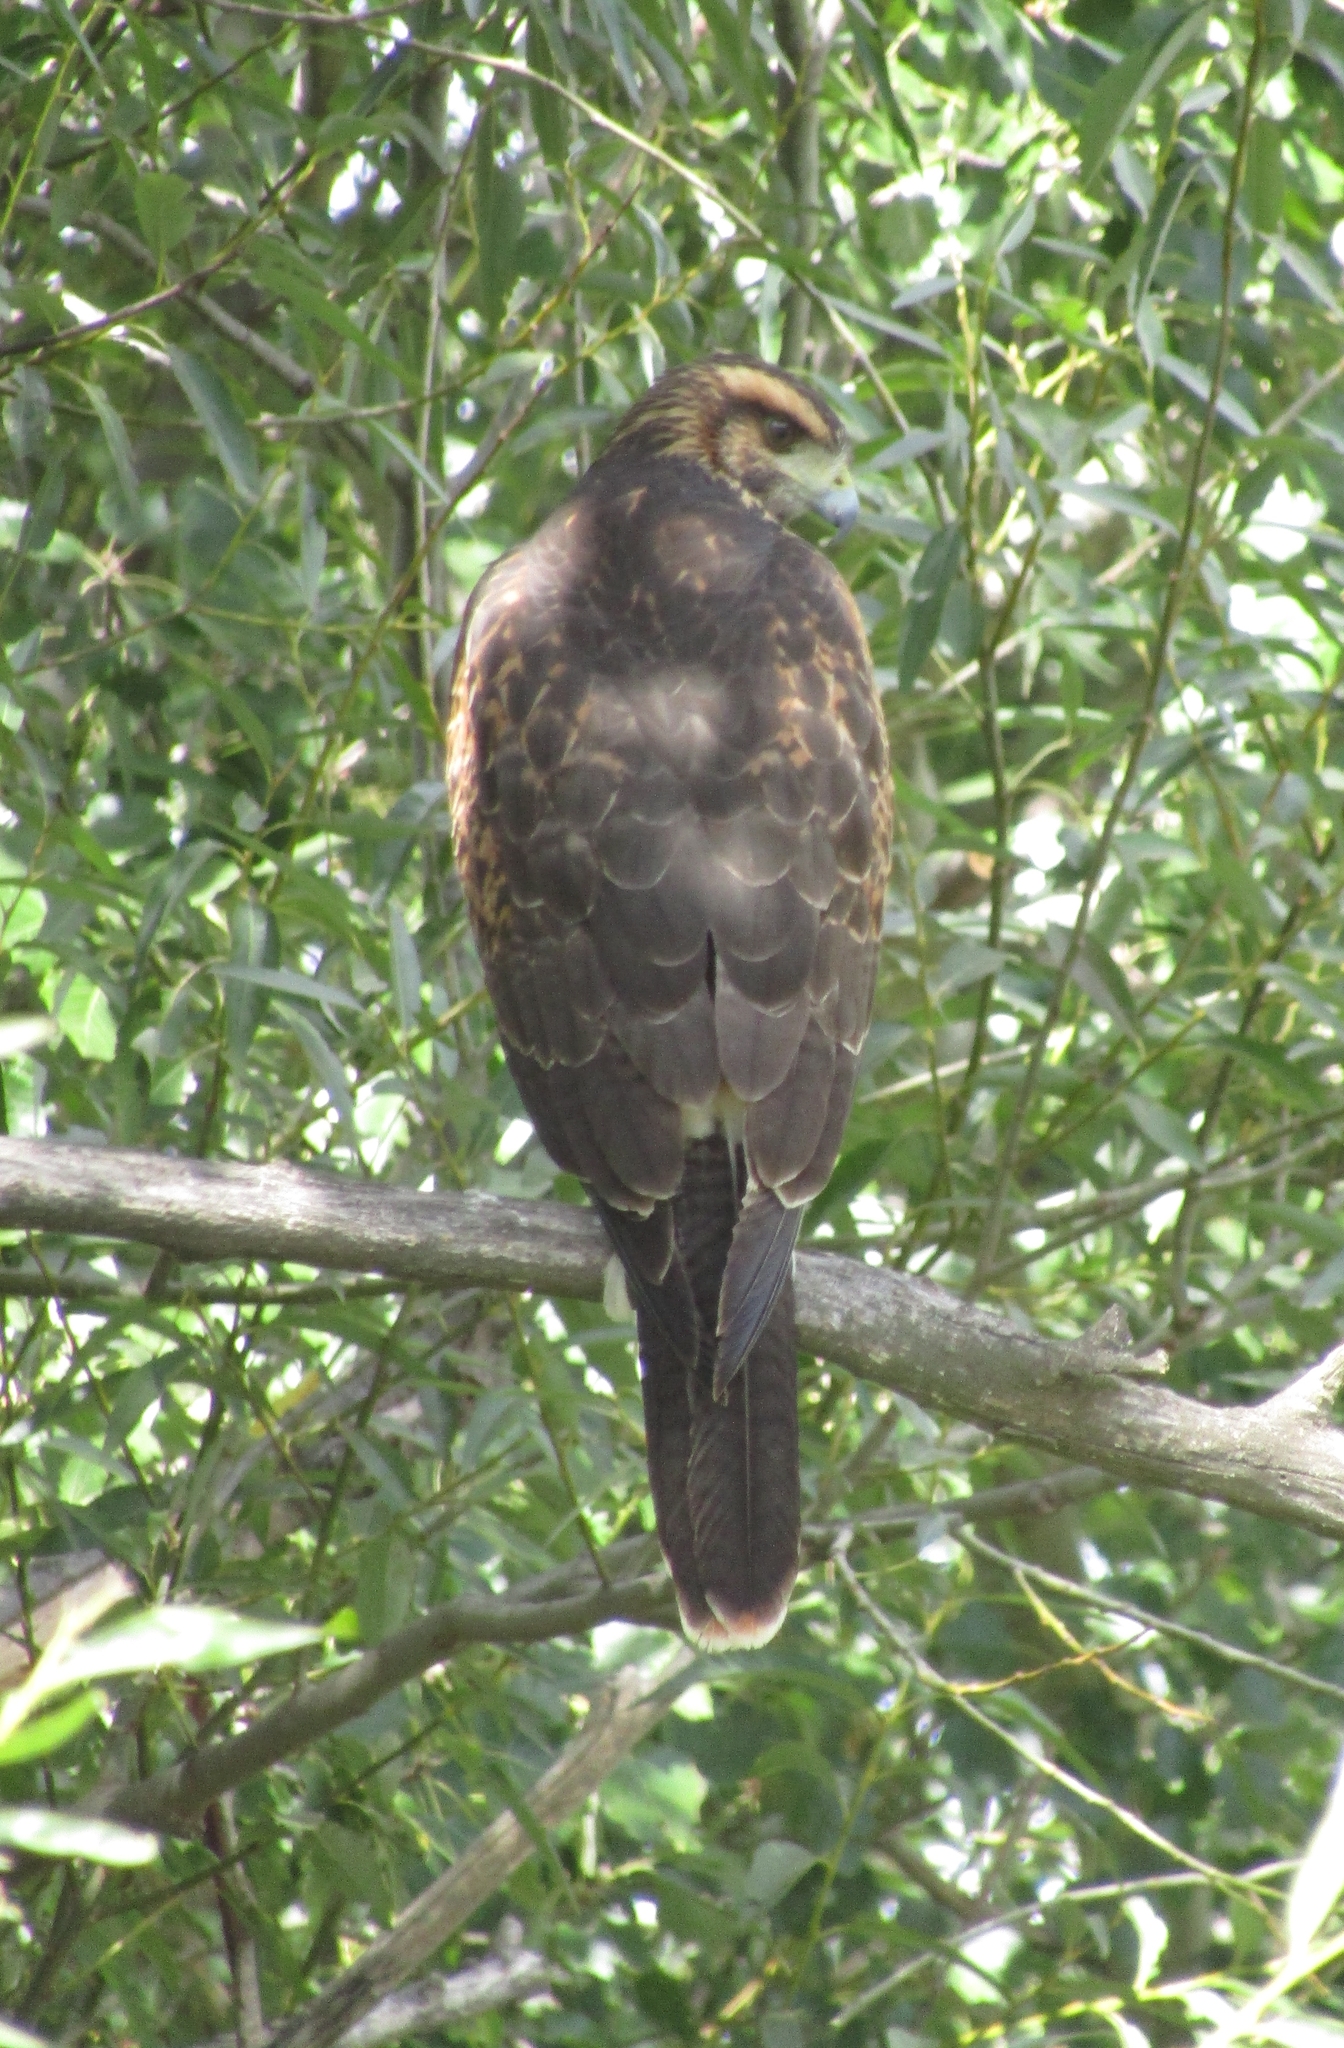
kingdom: Animalia
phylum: Chordata
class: Aves
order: Accipitriformes
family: Accipitridae
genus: Parabuteo
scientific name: Parabuteo unicinctus
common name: Harris's hawk
